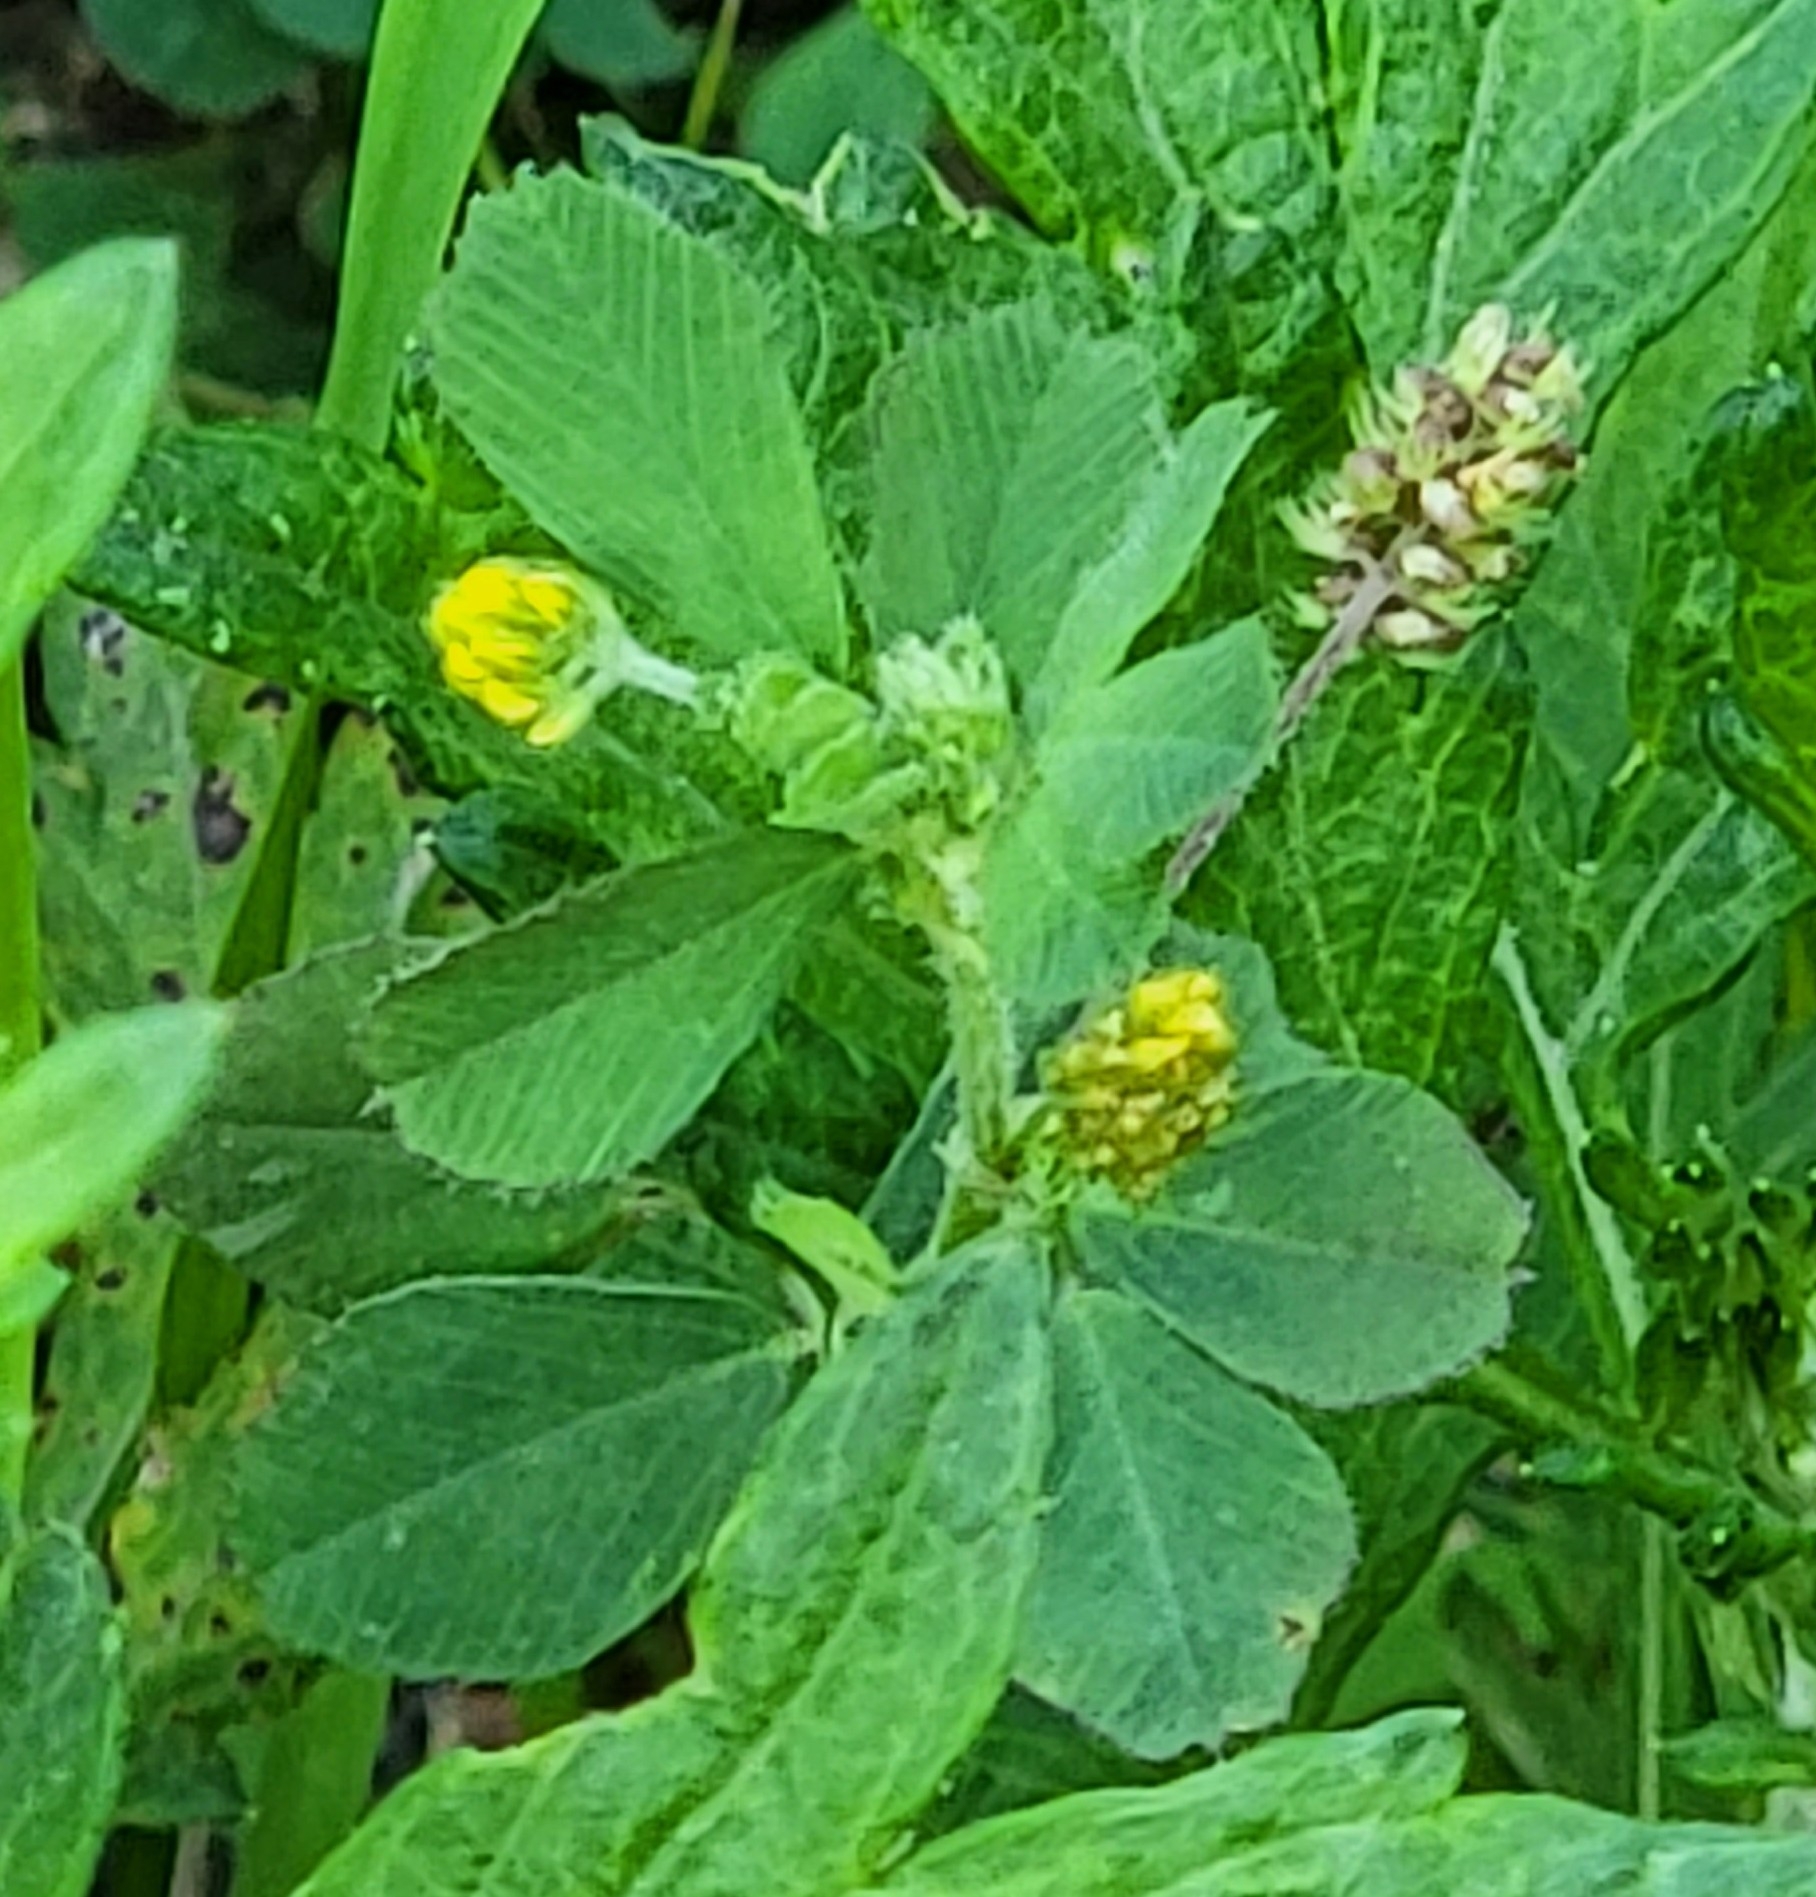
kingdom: Plantae
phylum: Tracheophyta
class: Magnoliopsida
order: Fabales
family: Fabaceae
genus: Medicago
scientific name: Medicago lupulina
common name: Black medick
